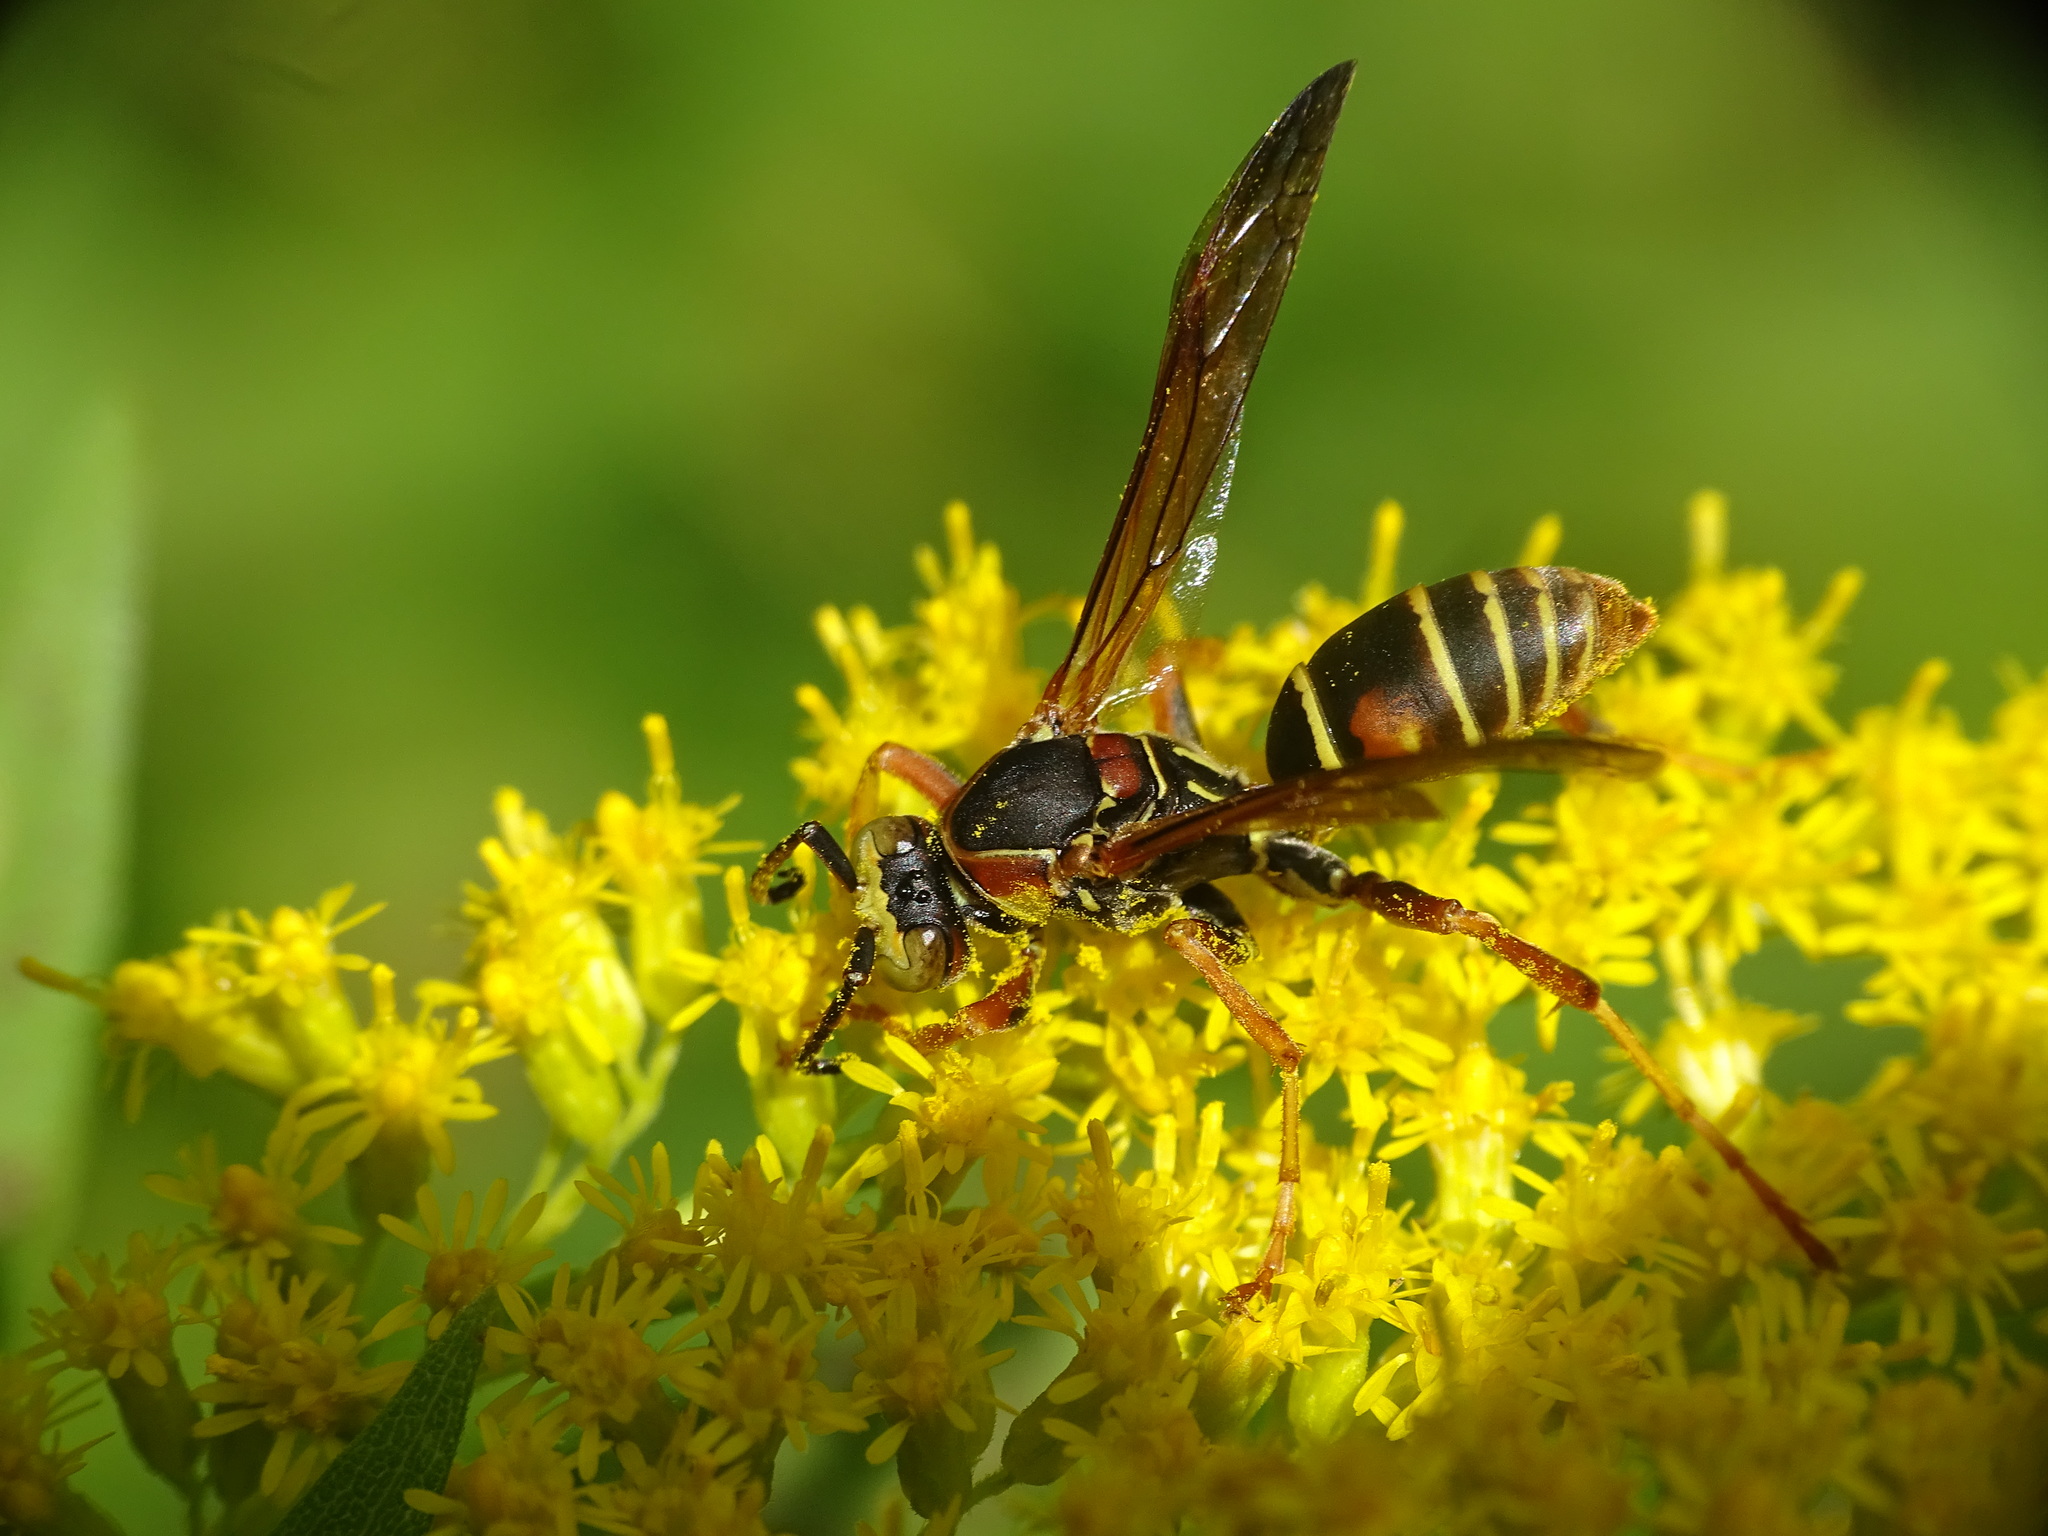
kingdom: Animalia
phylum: Arthropoda
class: Insecta
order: Hymenoptera
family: Eumenidae
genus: Polistes
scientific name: Polistes fuscatus
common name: Dark paper wasp
